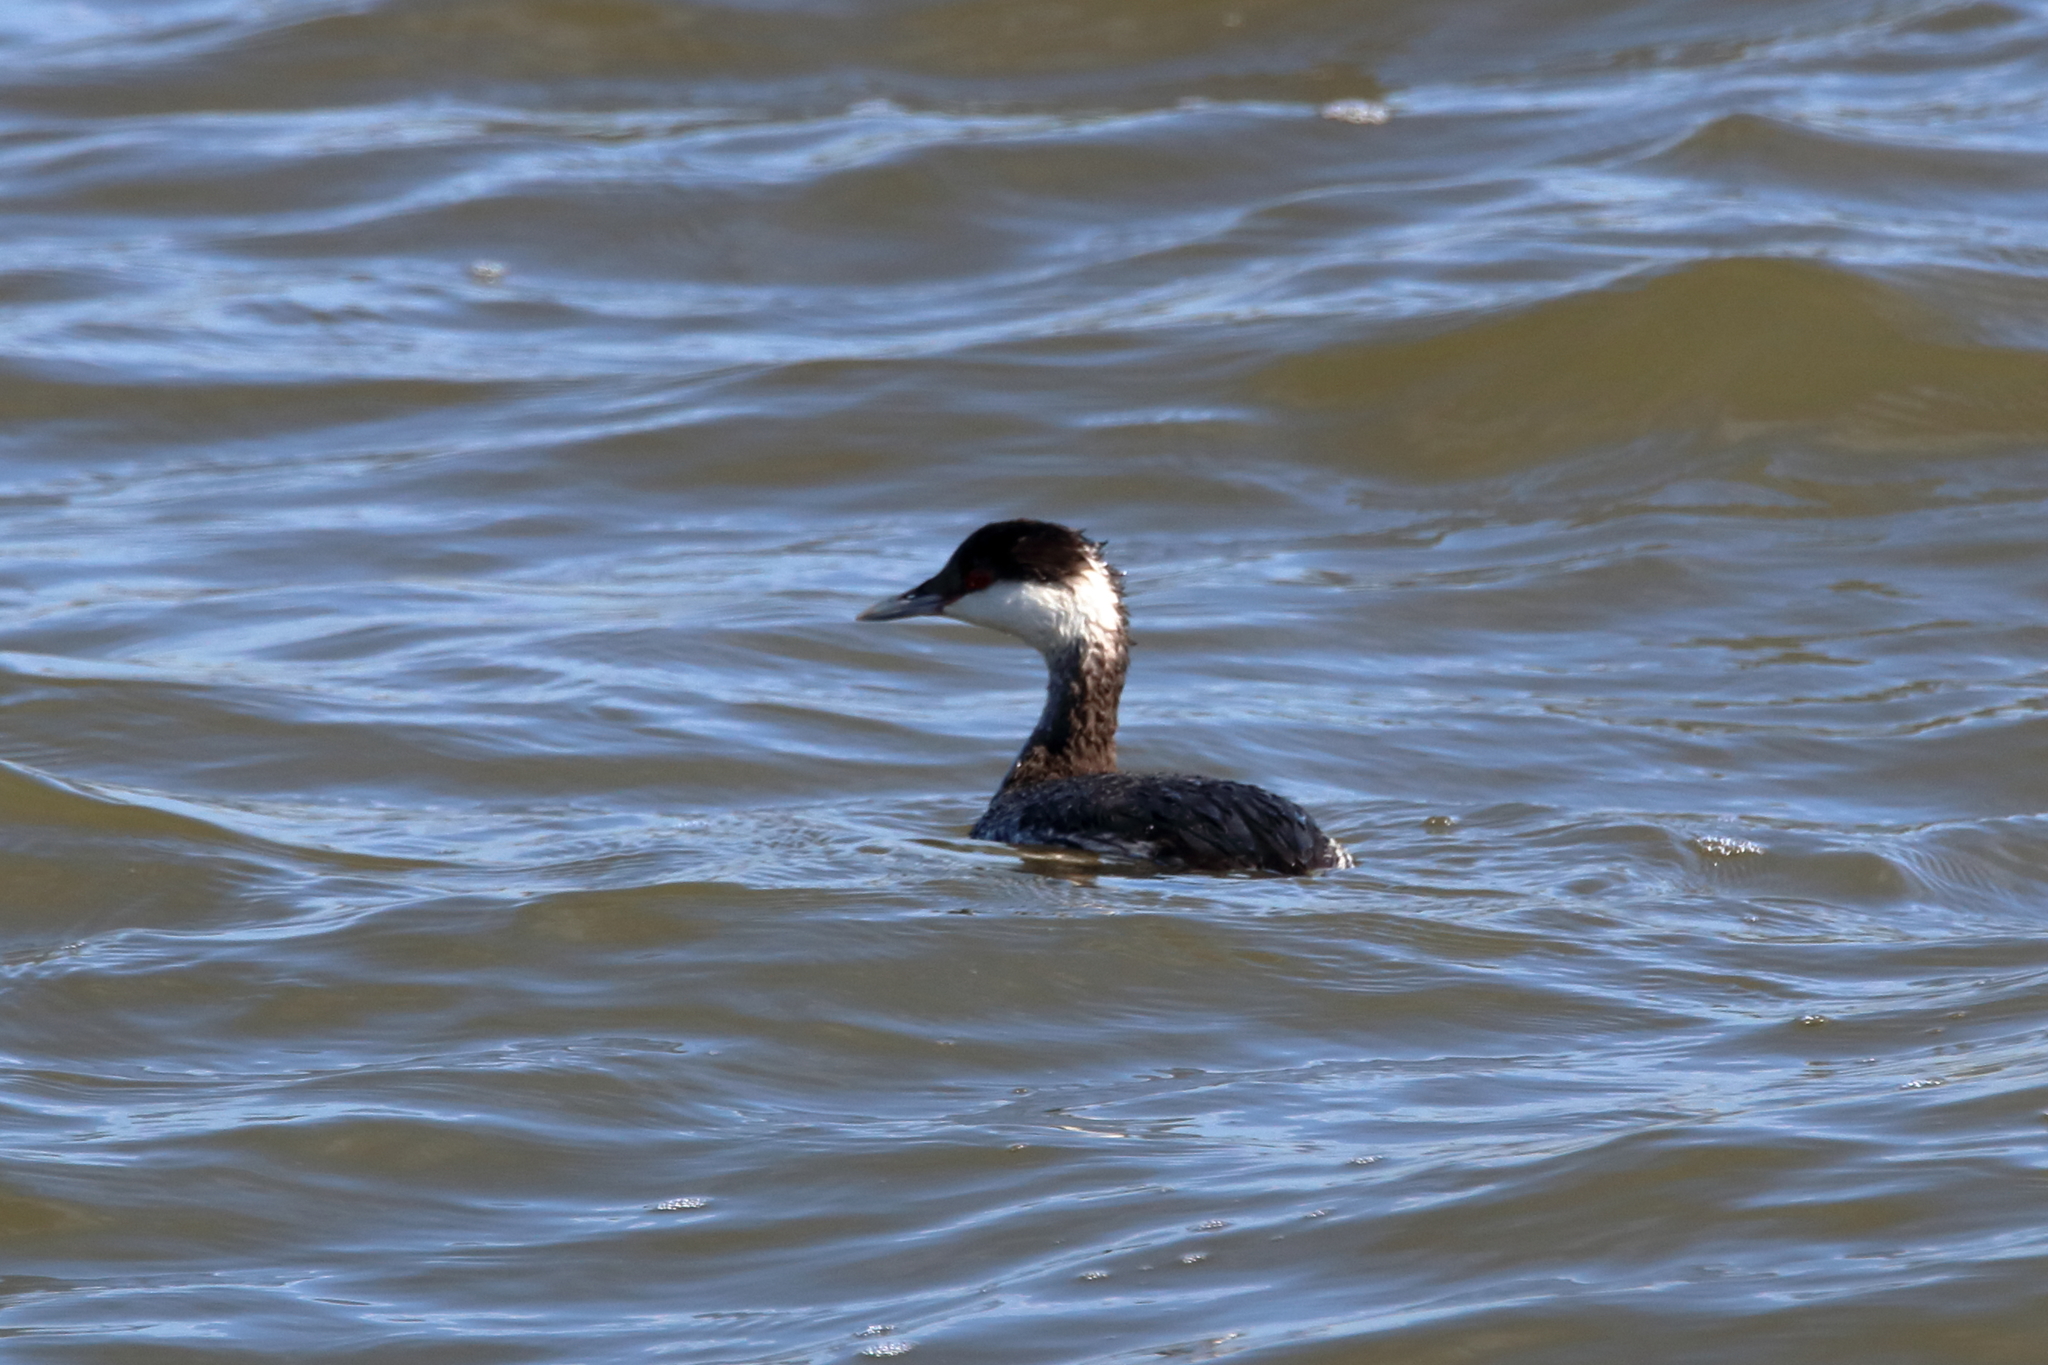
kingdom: Animalia
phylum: Chordata
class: Aves
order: Podicipediformes
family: Podicipedidae
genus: Podiceps
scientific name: Podiceps auritus
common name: Horned grebe
